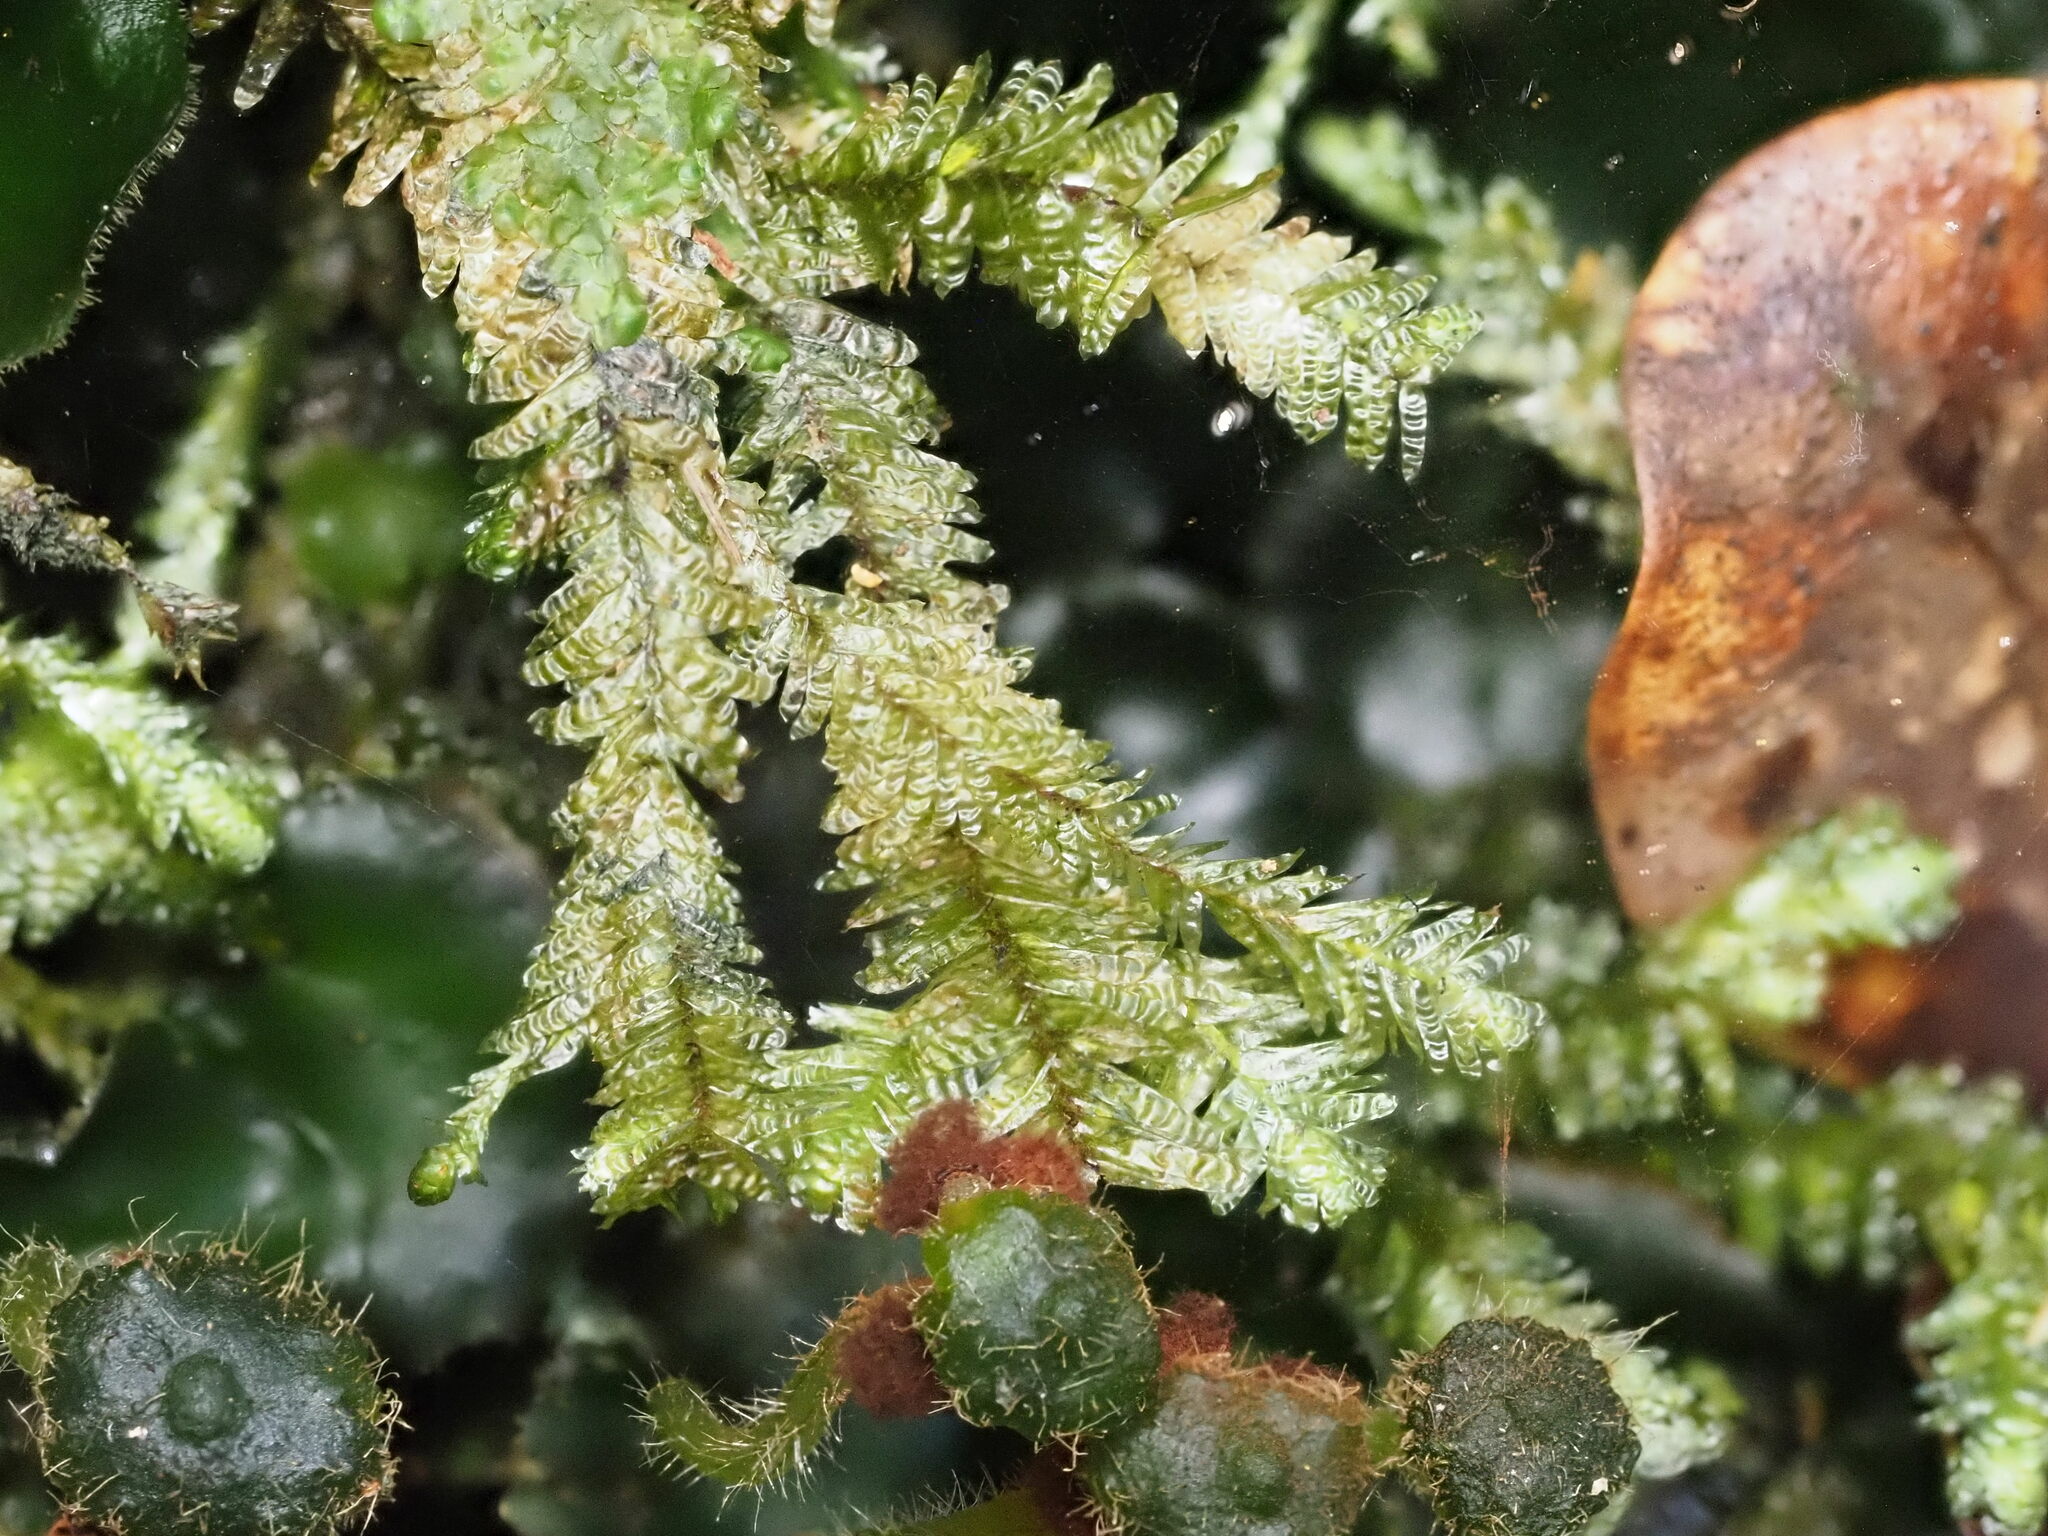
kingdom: Plantae
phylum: Bryophyta
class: Bryopsida
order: Hypnales
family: Neckeraceae
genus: Baldwiniella
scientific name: Baldwiniella kealeensis
